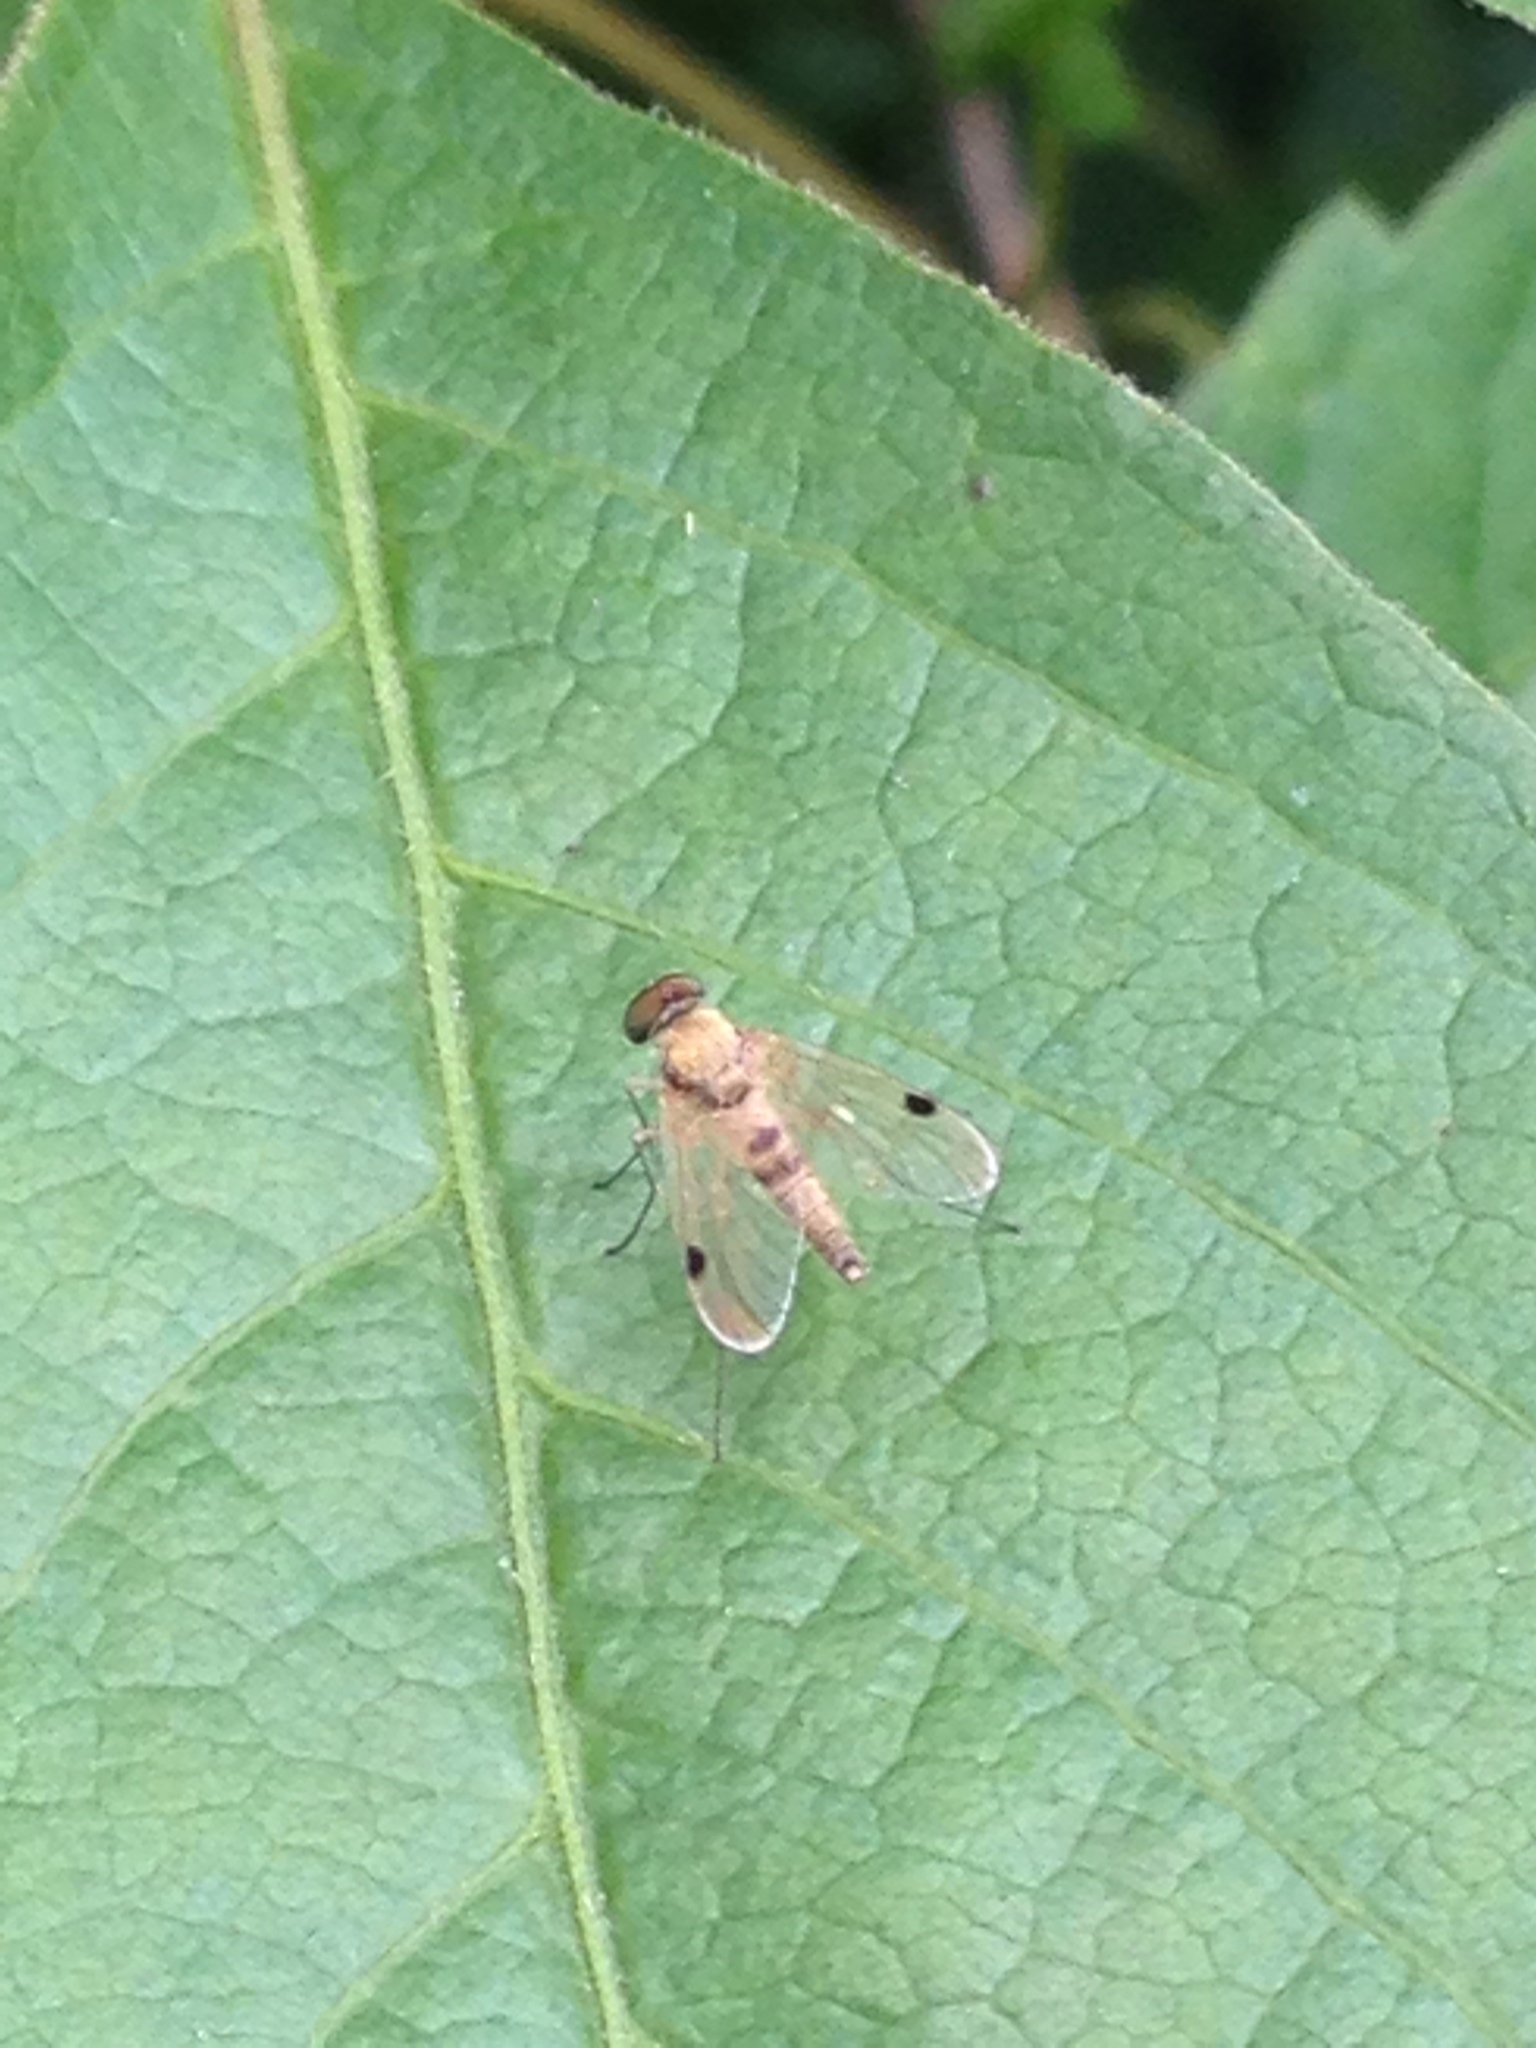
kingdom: Animalia
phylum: Arthropoda
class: Insecta
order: Diptera
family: Rhagionidae
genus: Chrysopilus
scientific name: Chrysopilus modestus
